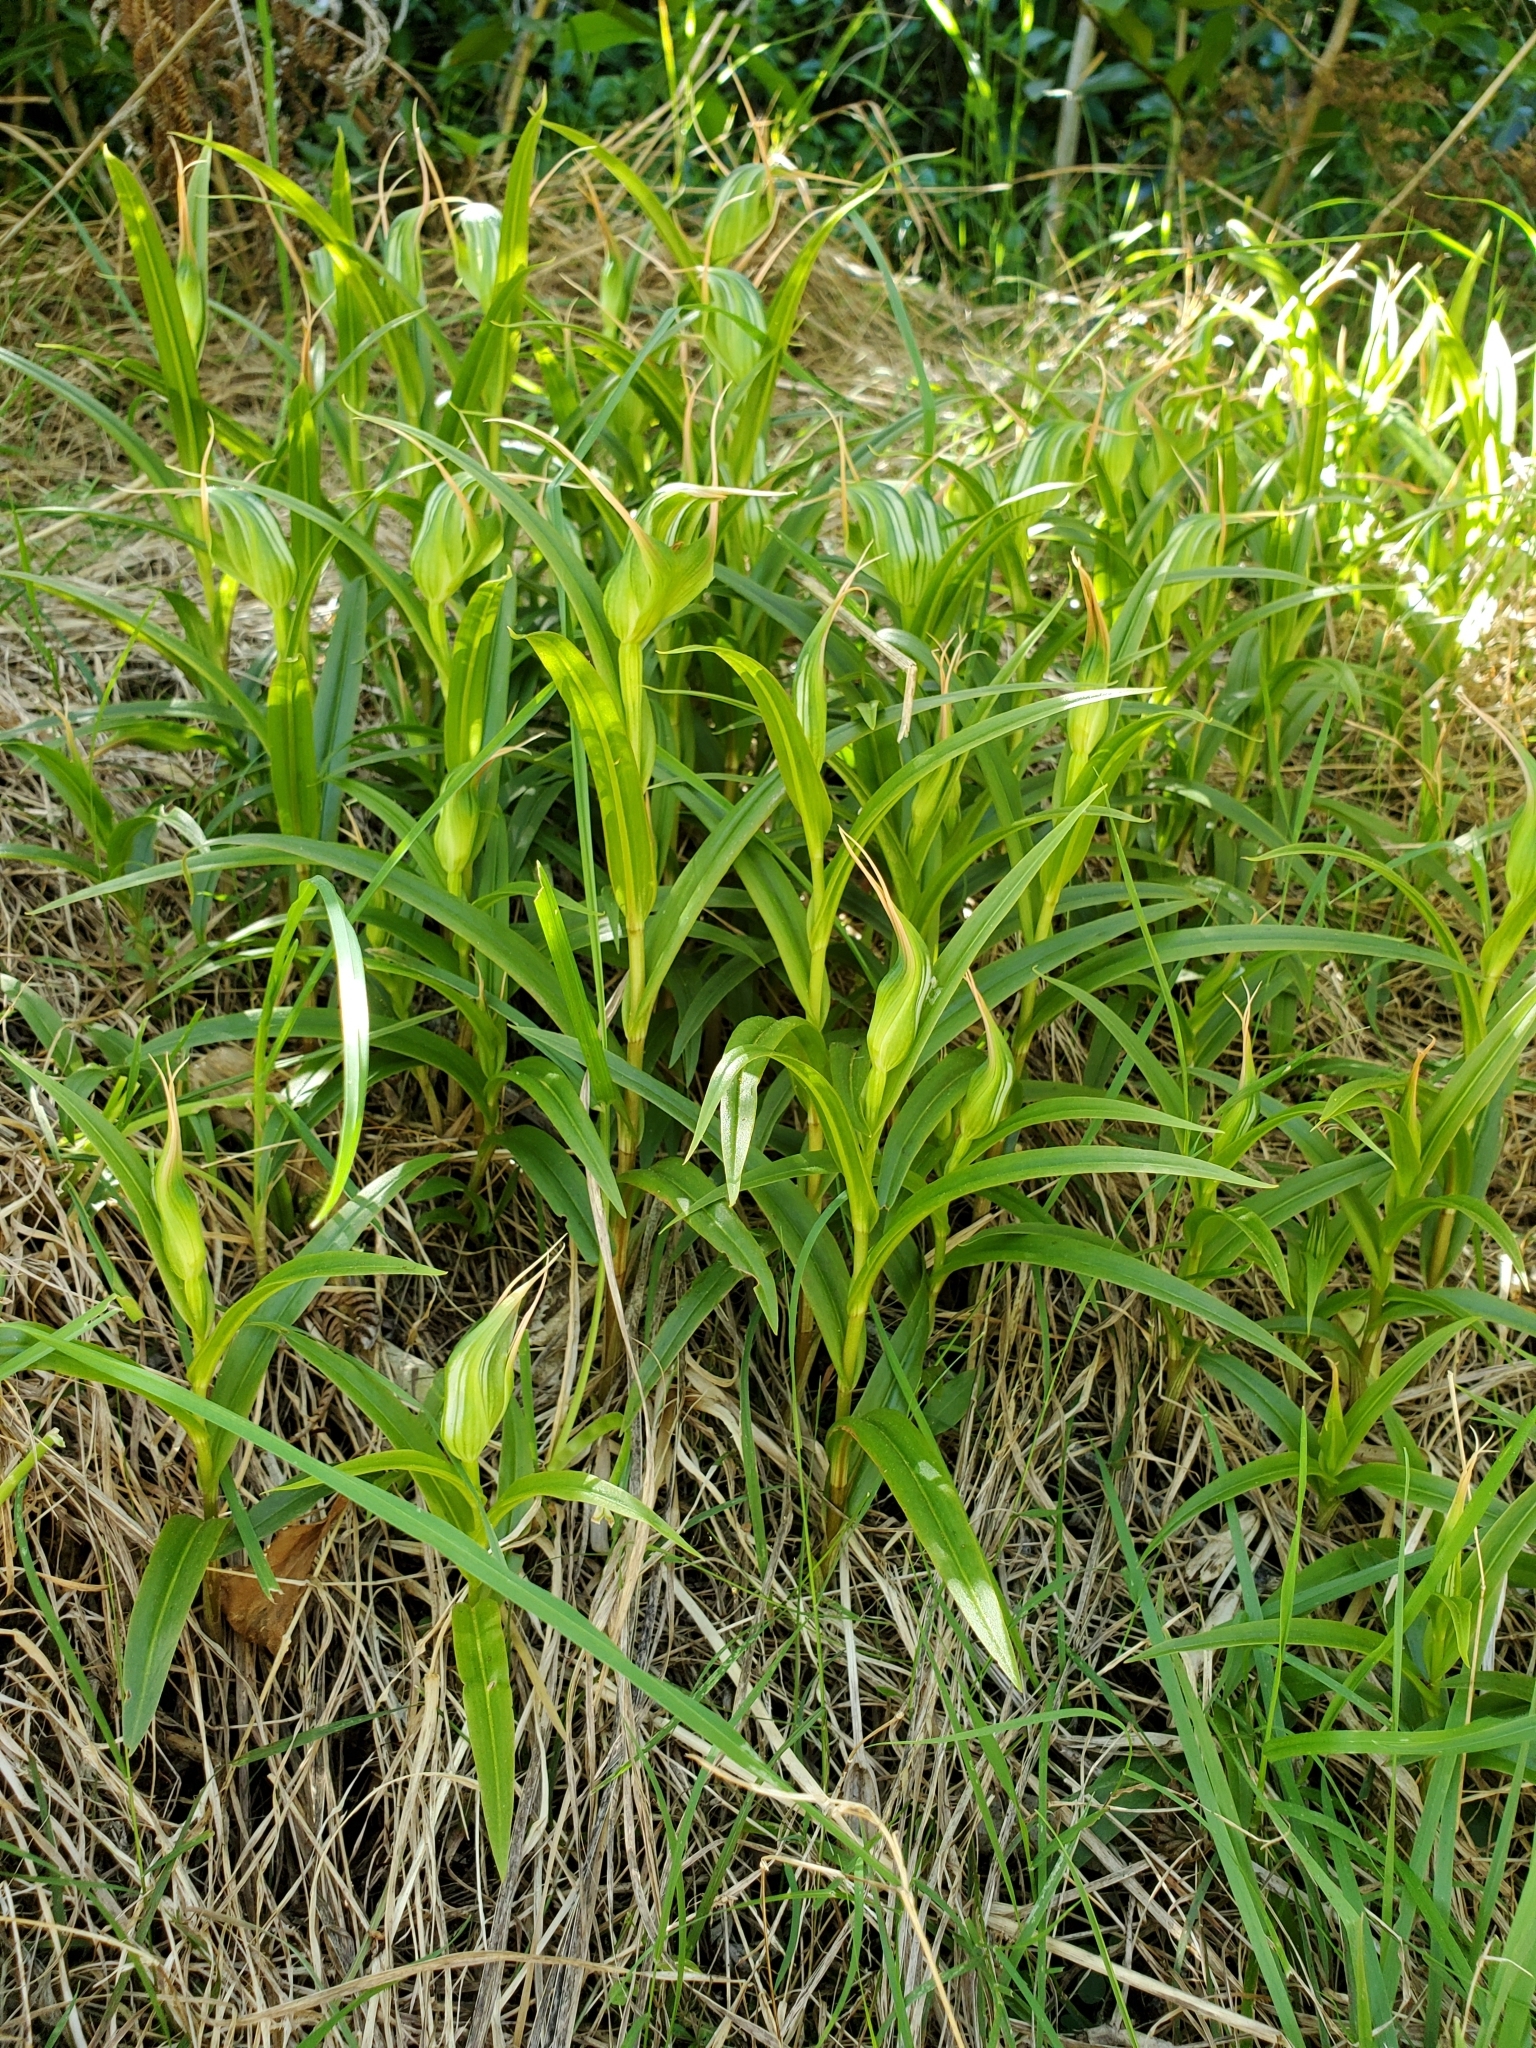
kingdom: Plantae
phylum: Tracheophyta
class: Liliopsida
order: Asparagales
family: Orchidaceae
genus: Pterostylis
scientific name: Pterostylis banksii
